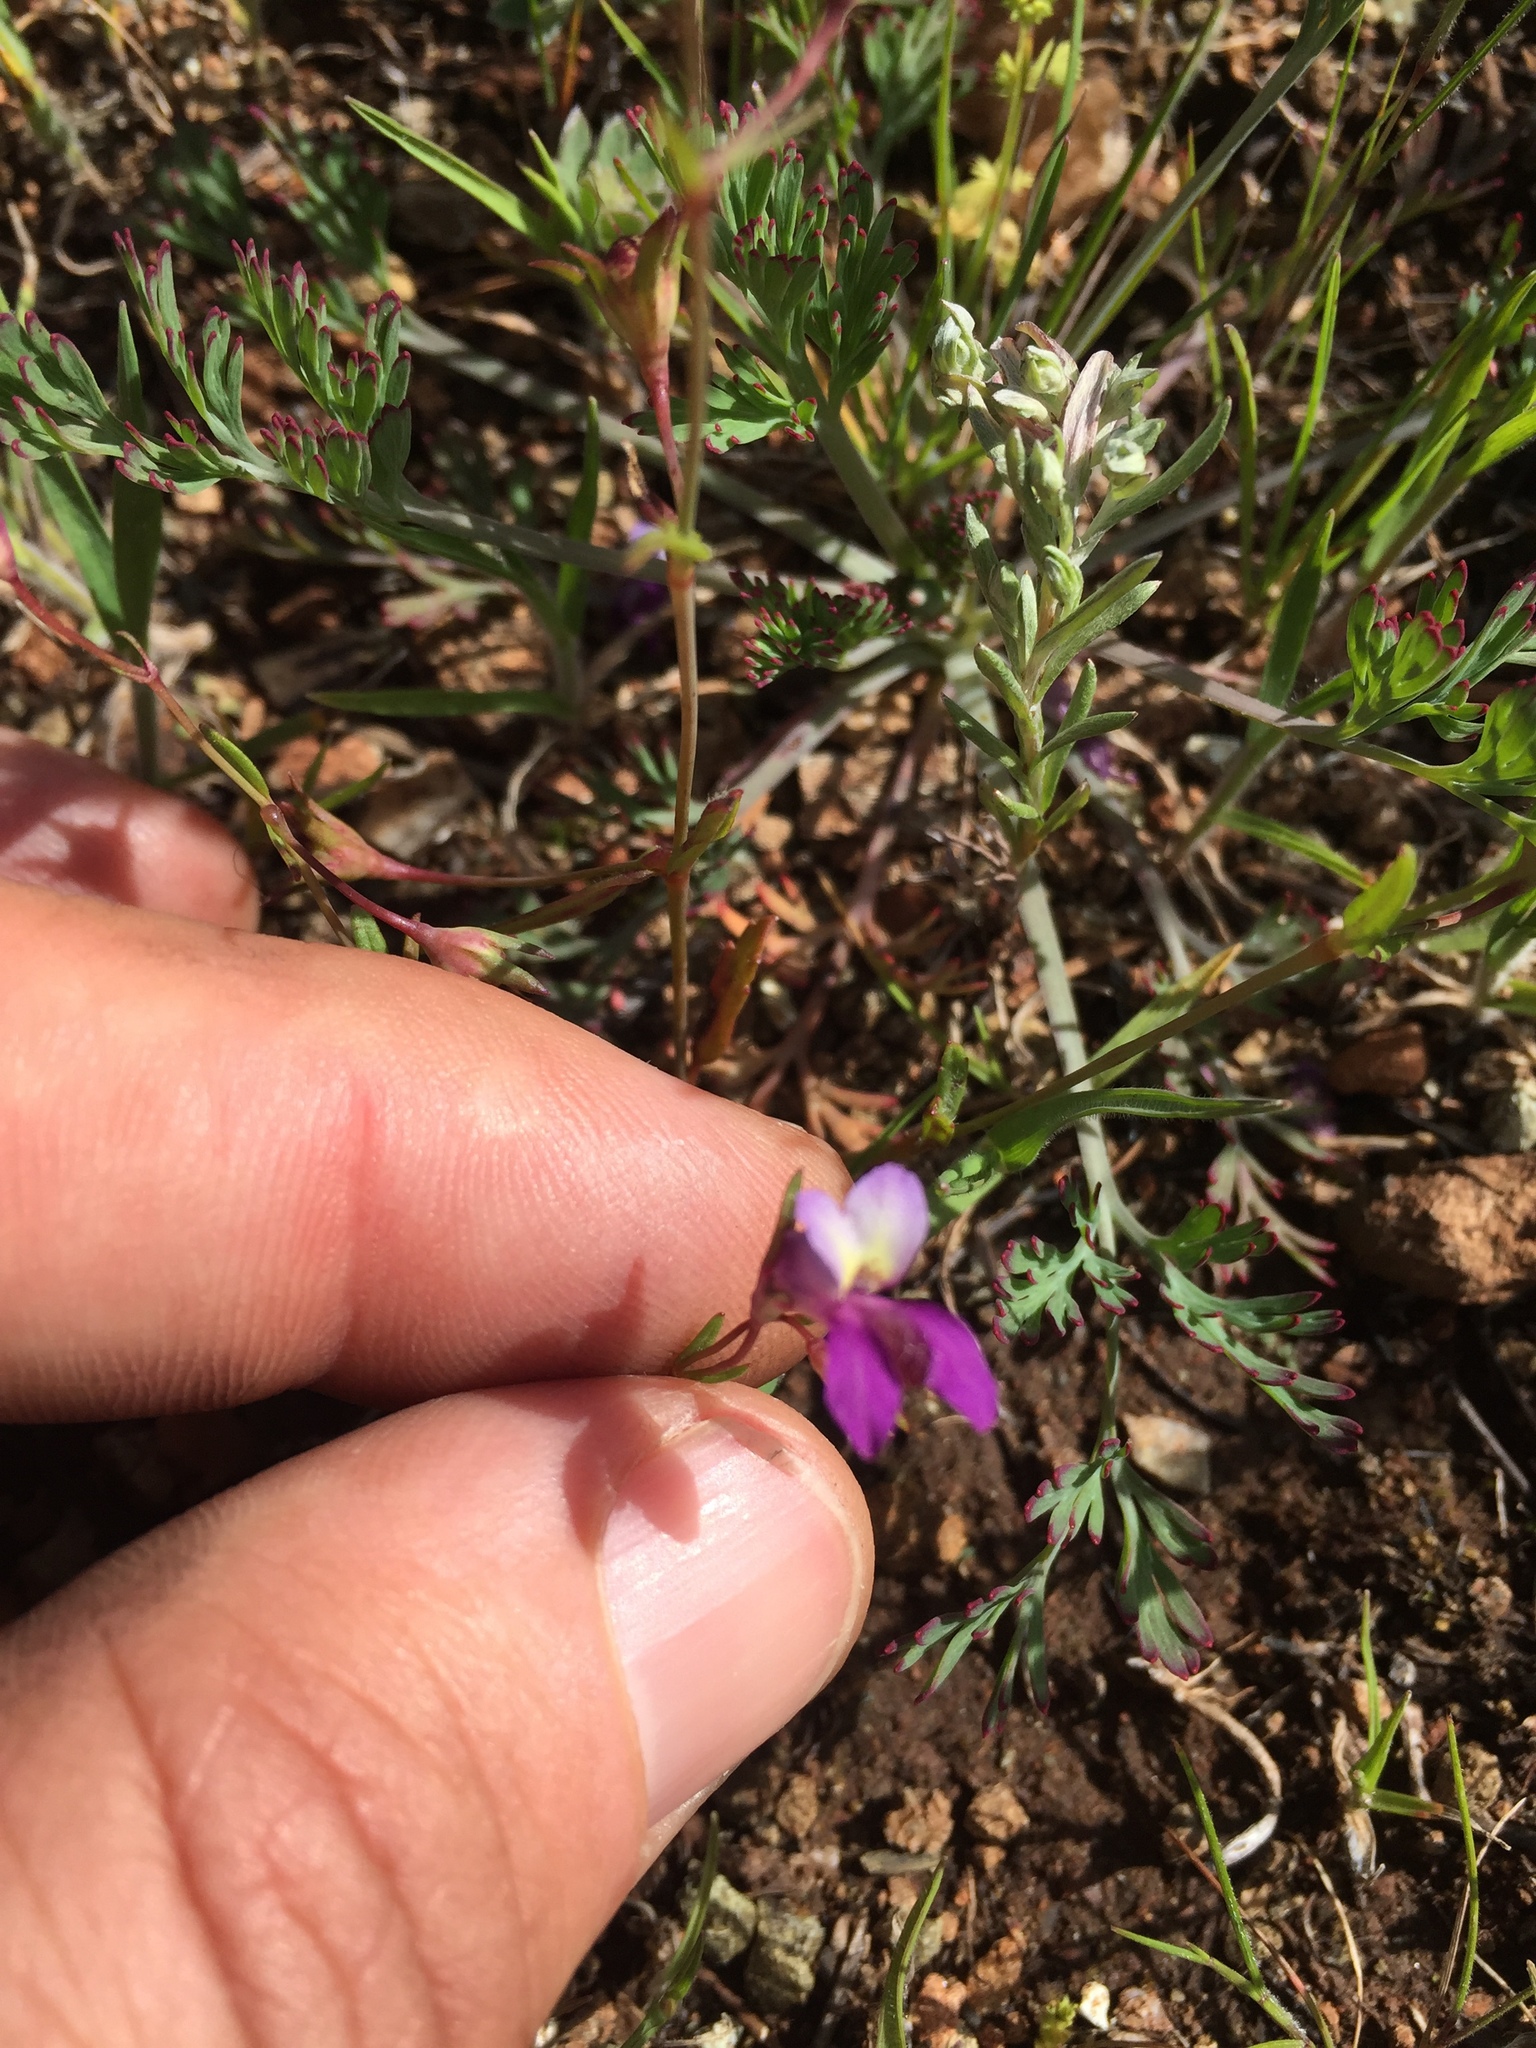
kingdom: Plantae
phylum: Tracheophyta
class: Magnoliopsida
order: Lamiales
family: Plantaginaceae
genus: Collinsia
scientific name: Collinsia sparsiflora
